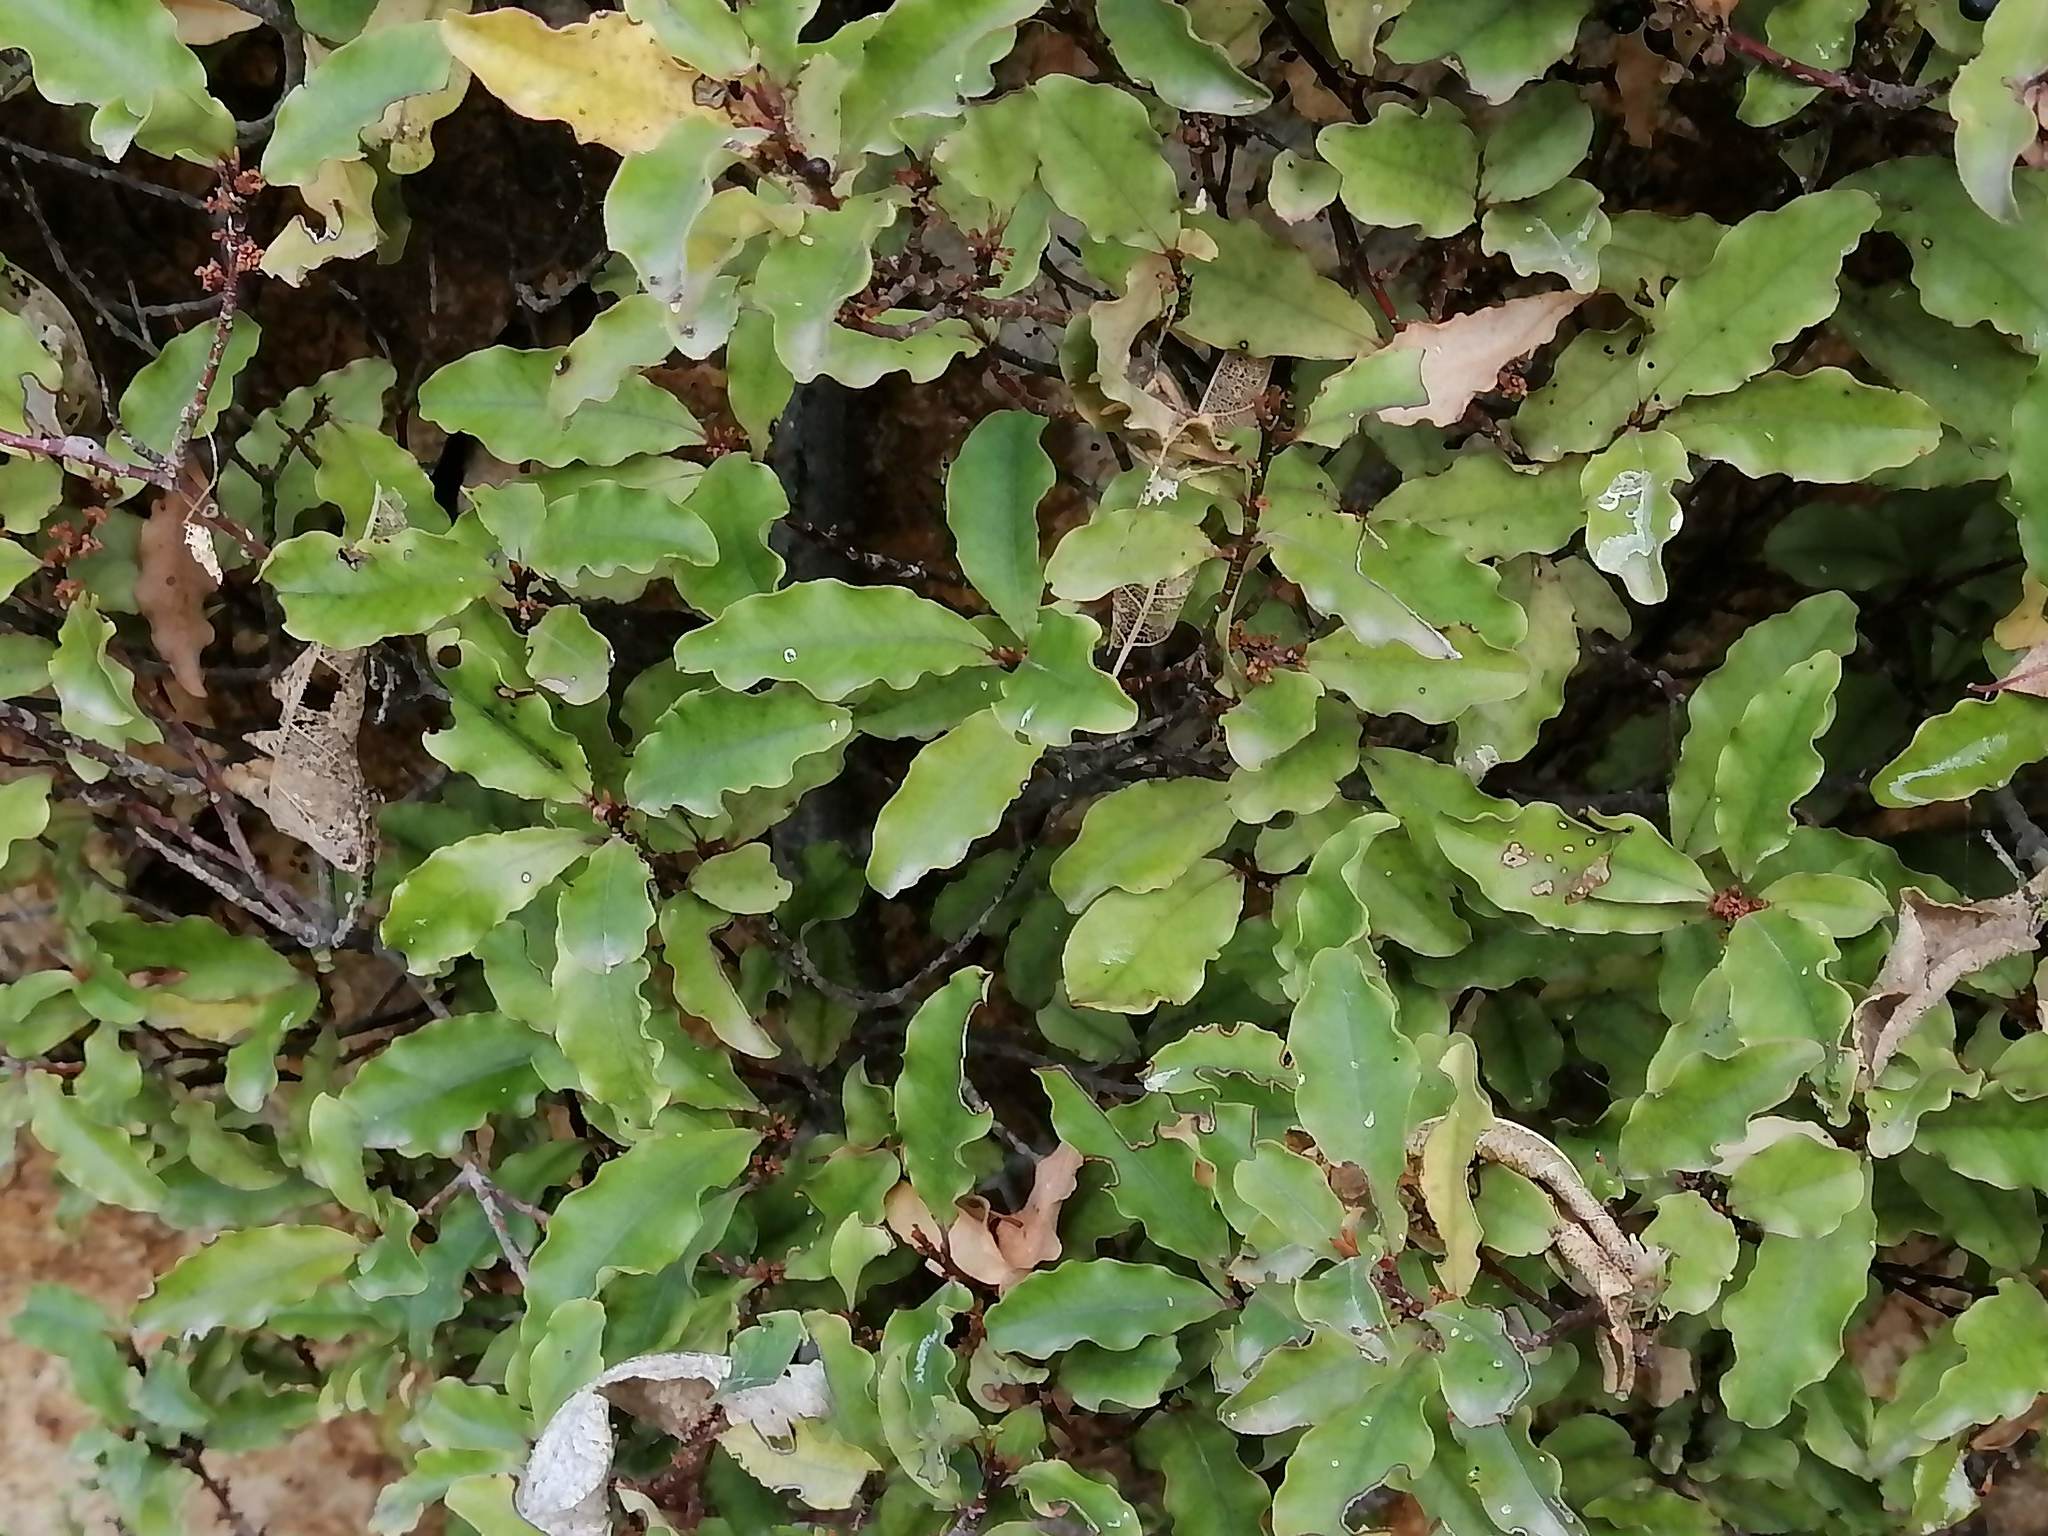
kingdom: Plantae
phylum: Tracheophyta
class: Magnoliopsida
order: Ericales
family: Primulaceae
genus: Myrsine
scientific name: Myrsine australis
